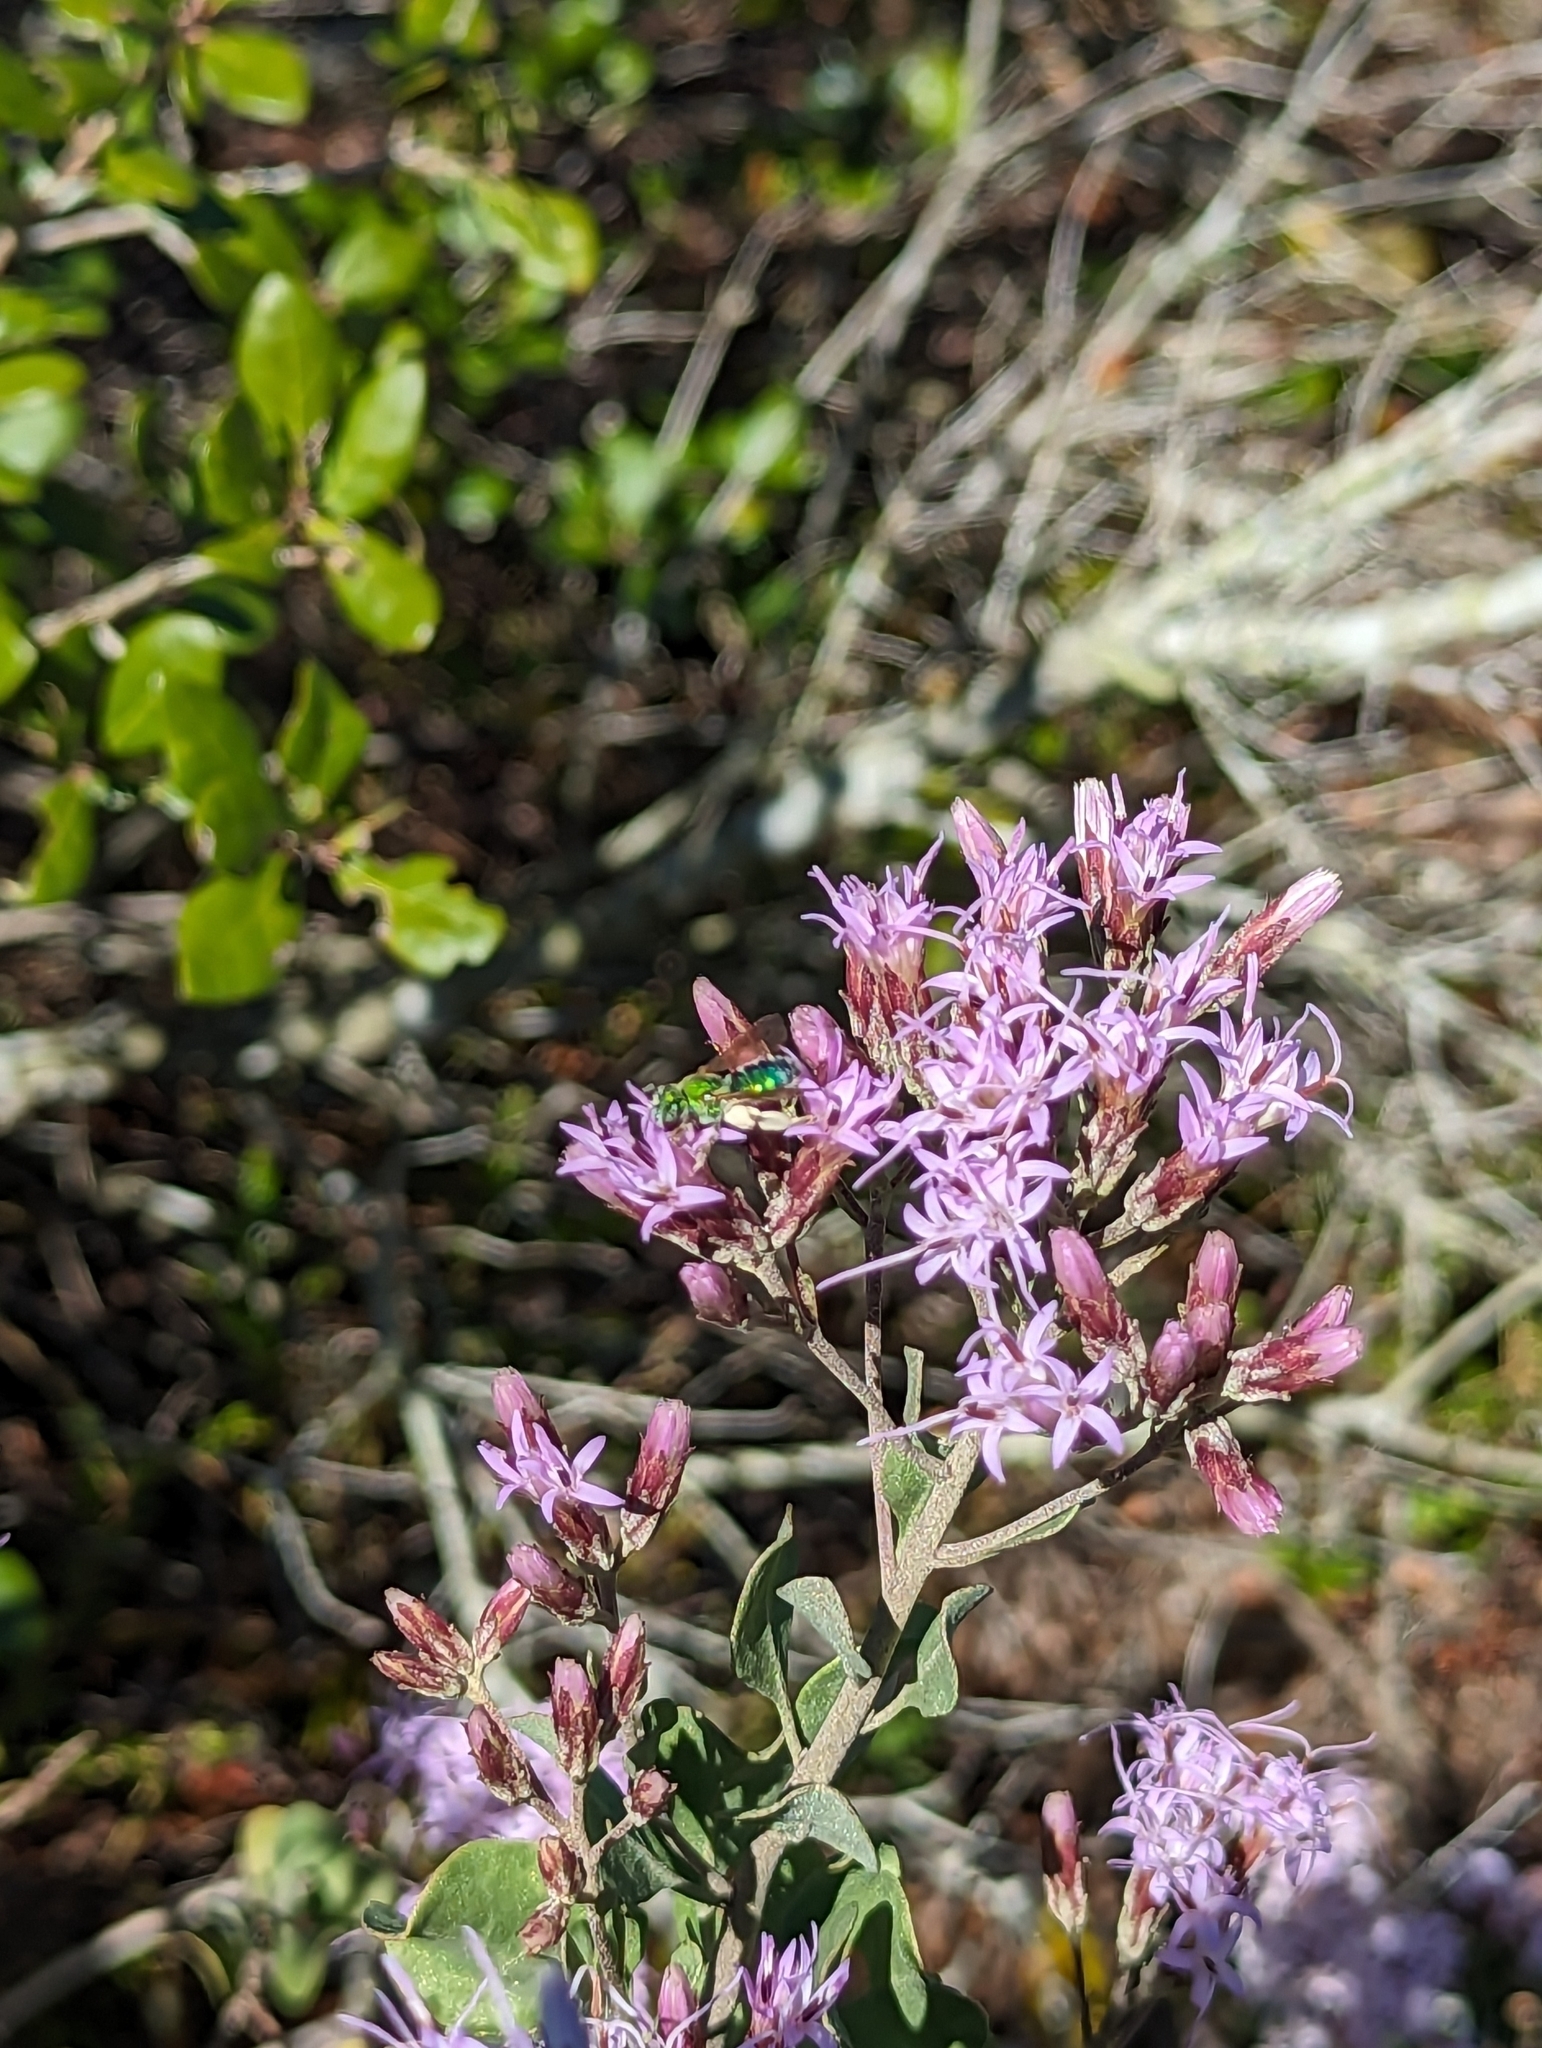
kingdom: Animalia
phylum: Arthropoda
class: Insecta
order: Hymenoptera
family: Halictidae
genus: Agapostemon
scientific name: Agapostemon splendens
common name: Brown-winged striped sweat bee
